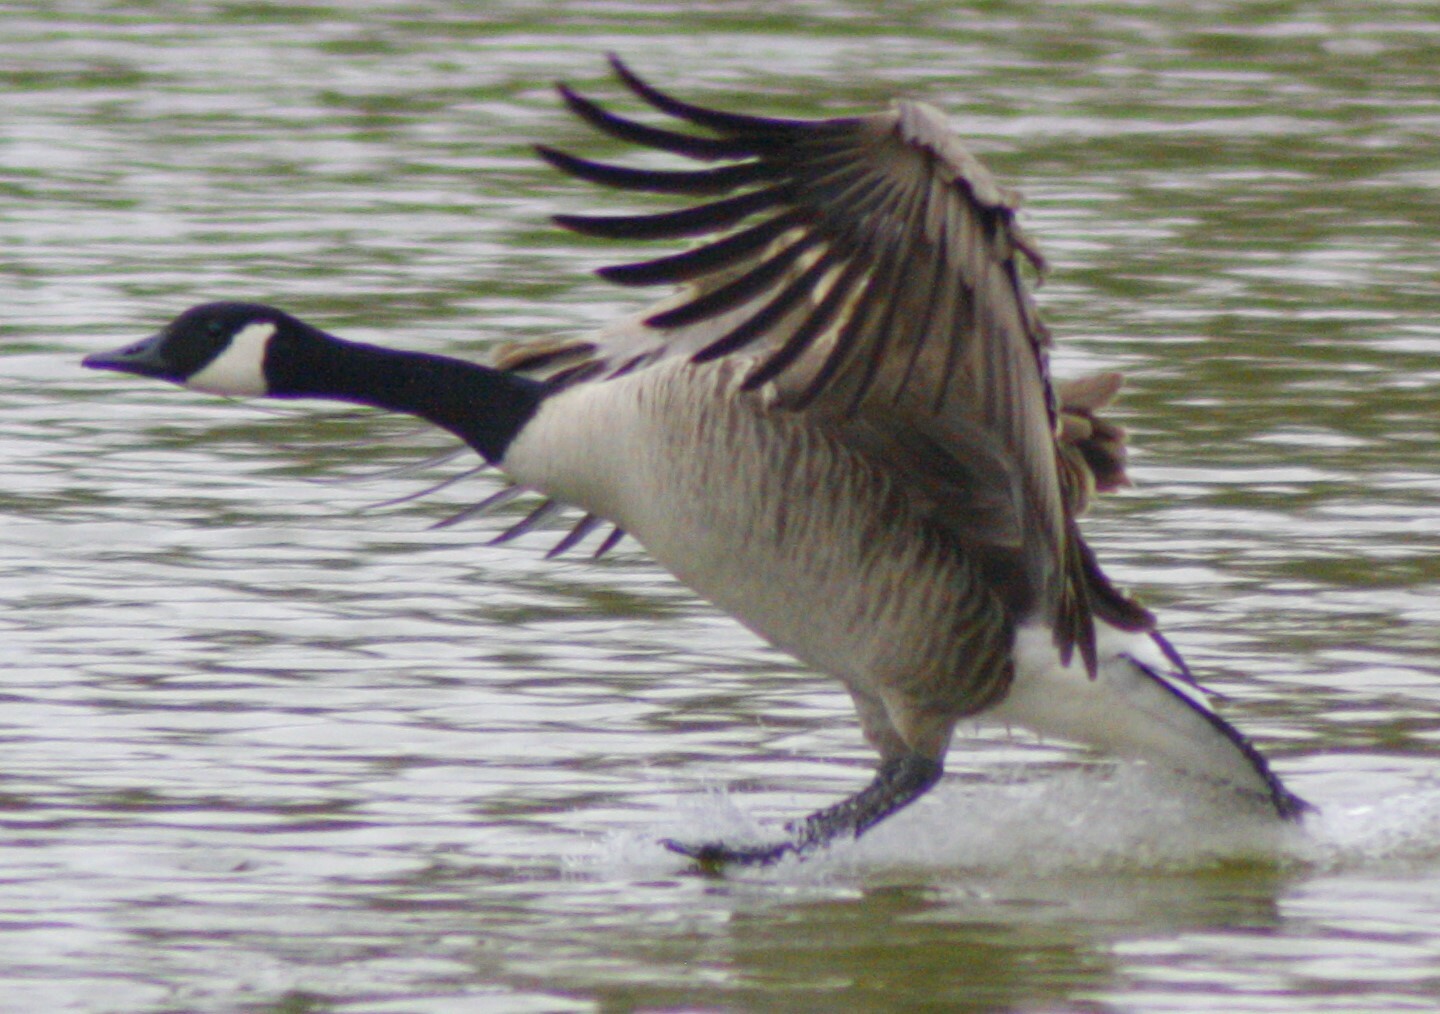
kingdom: Animalia
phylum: Chordata
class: Aves
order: Anseriformes
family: Anatidae
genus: Branta
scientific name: Branta canadensis
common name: Canada goose
